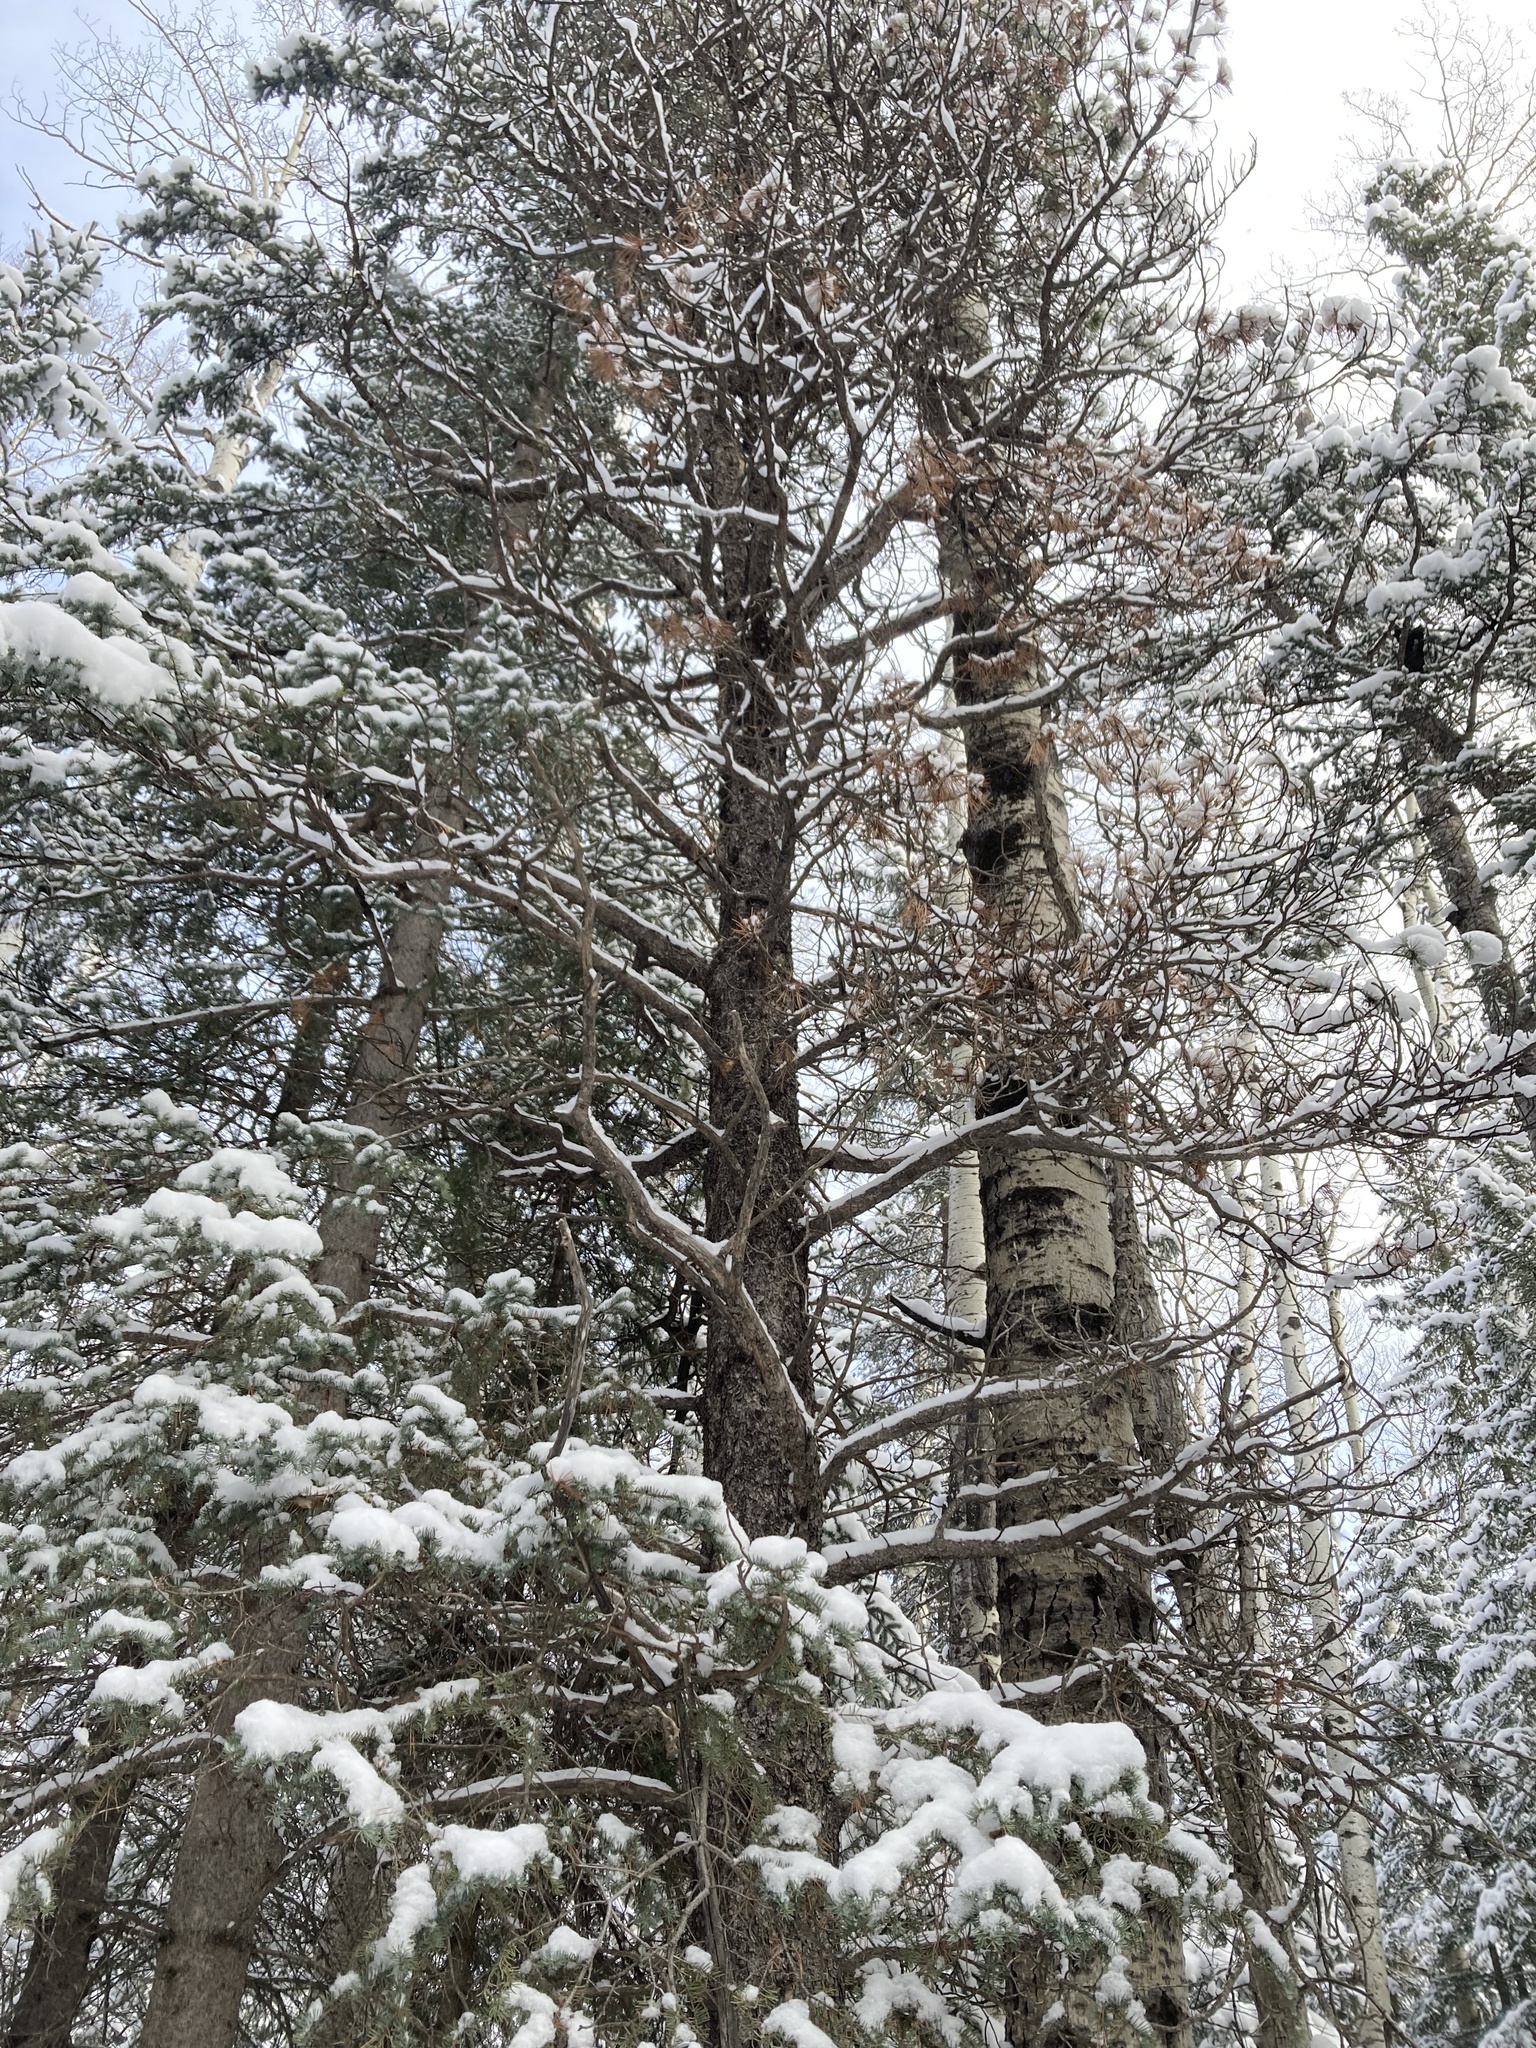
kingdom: Plantae
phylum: Tracheophyta
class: Pinopsida
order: Pinales
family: Pinaceae
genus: Pinus
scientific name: Pinus contorta
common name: Lodgepole pine
